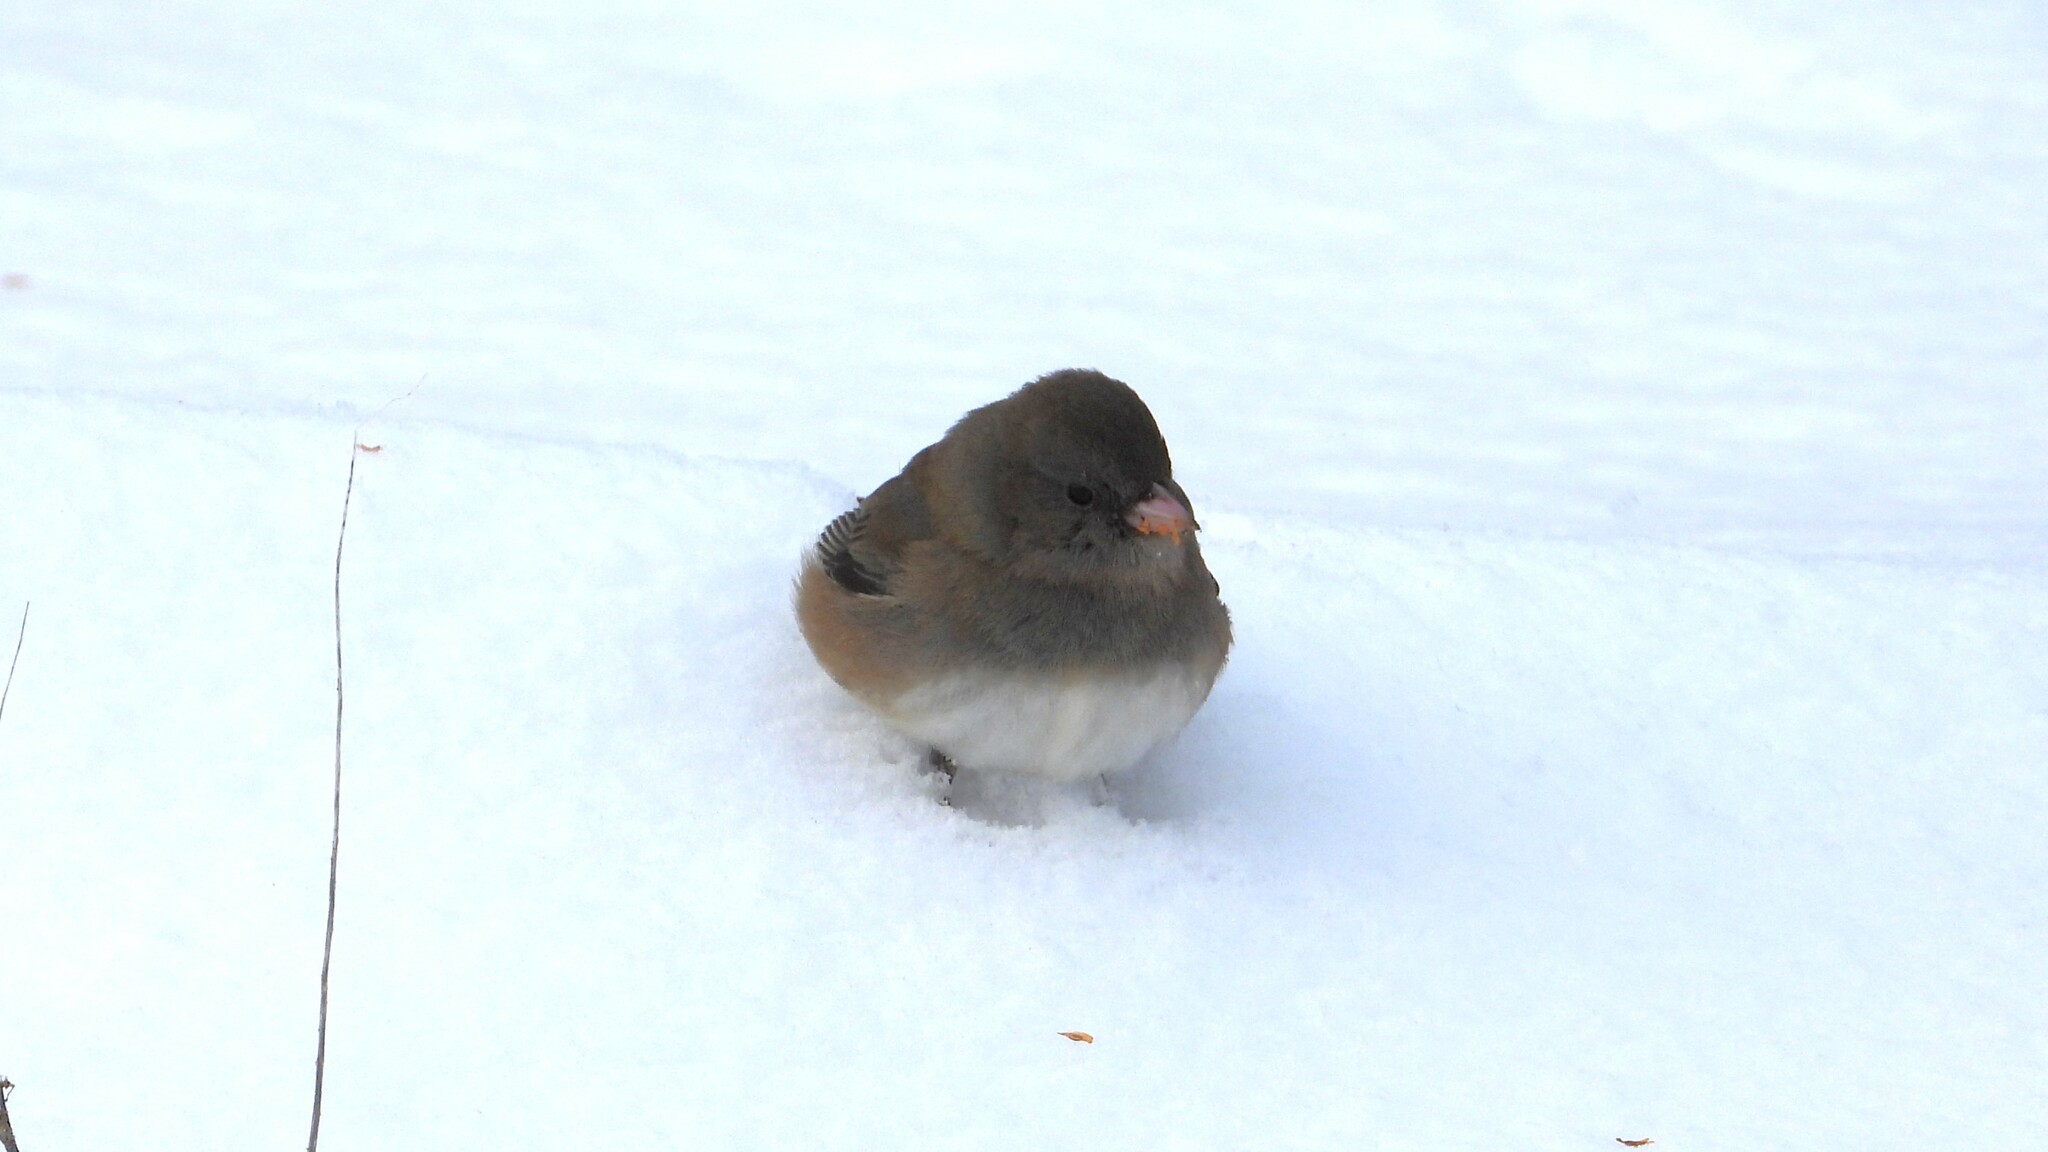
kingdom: Animalia
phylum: Chordata
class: Aves
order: Passeriformes
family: Passerellidae
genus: Junco
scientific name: Junco hyemalis
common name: Dark-eyed junco
